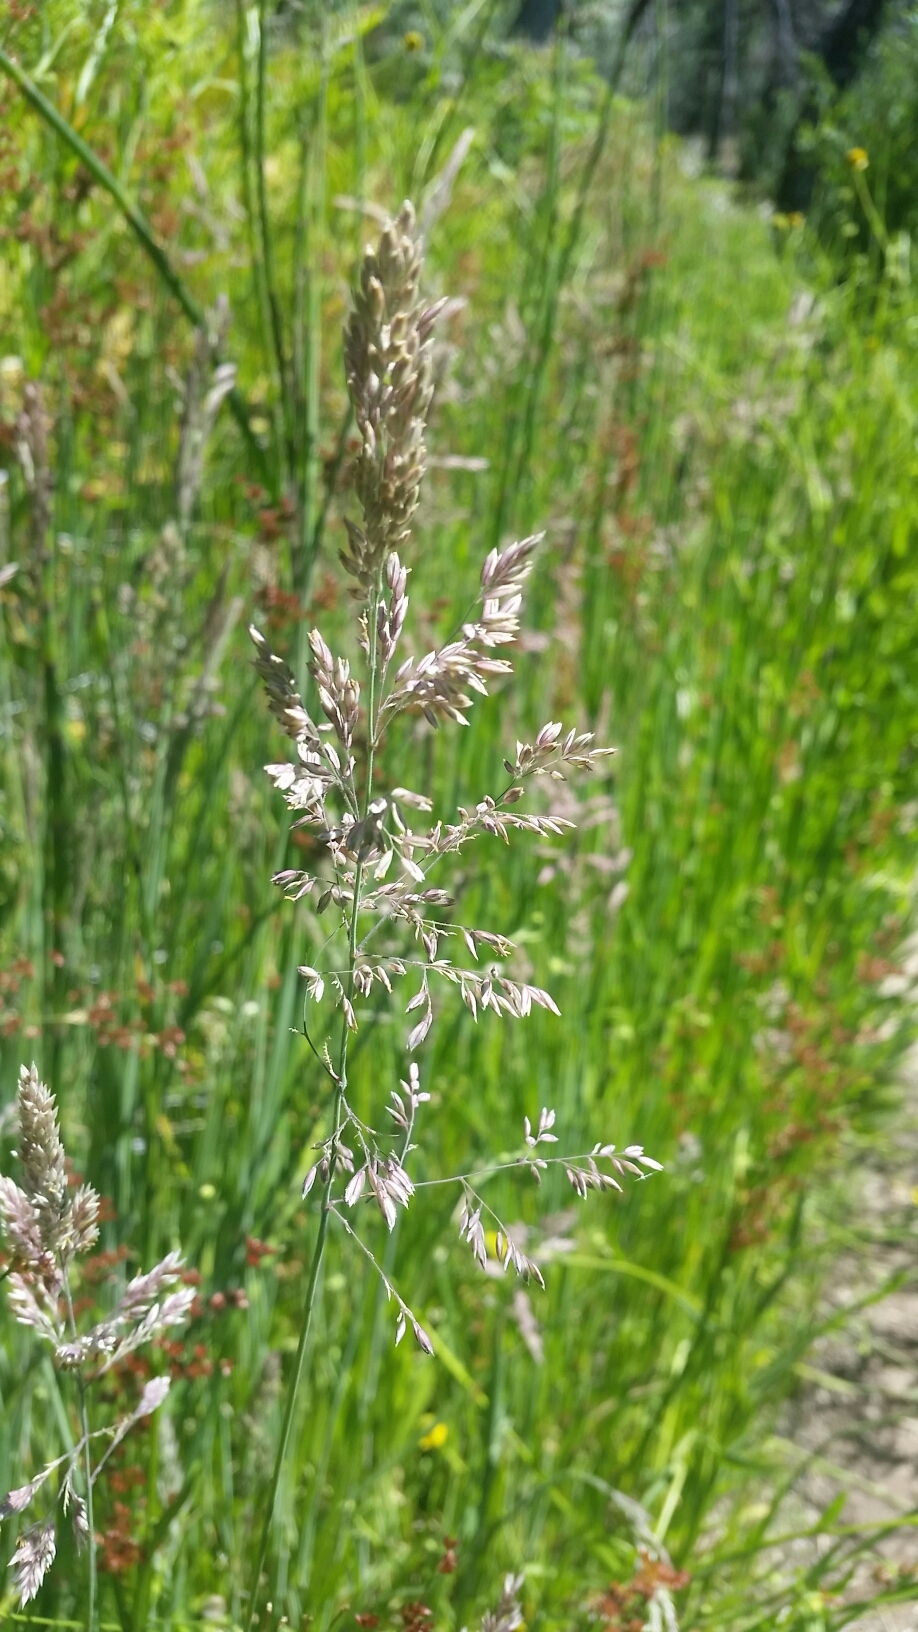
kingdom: Plantae
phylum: Tracheophyta
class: Liliopsida
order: Poales
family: Poaceae
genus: Holcus
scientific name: Holcus lanatus
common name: Yorkshire-fog
